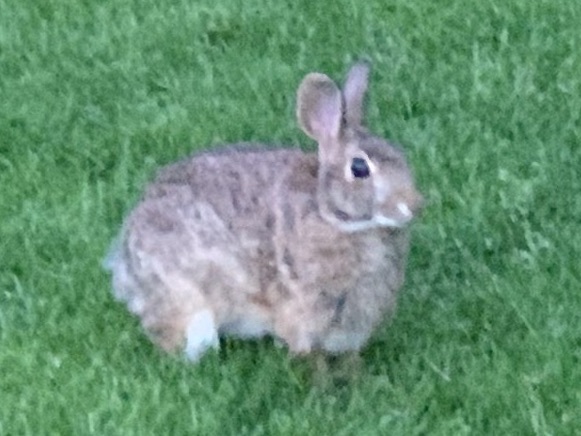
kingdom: Animalia
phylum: Chordata
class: Mammalia
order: Lagomorpha
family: Leporidae
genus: Sylvilagus
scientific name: Sylvilagus floridanus
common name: Eastern cottontail
